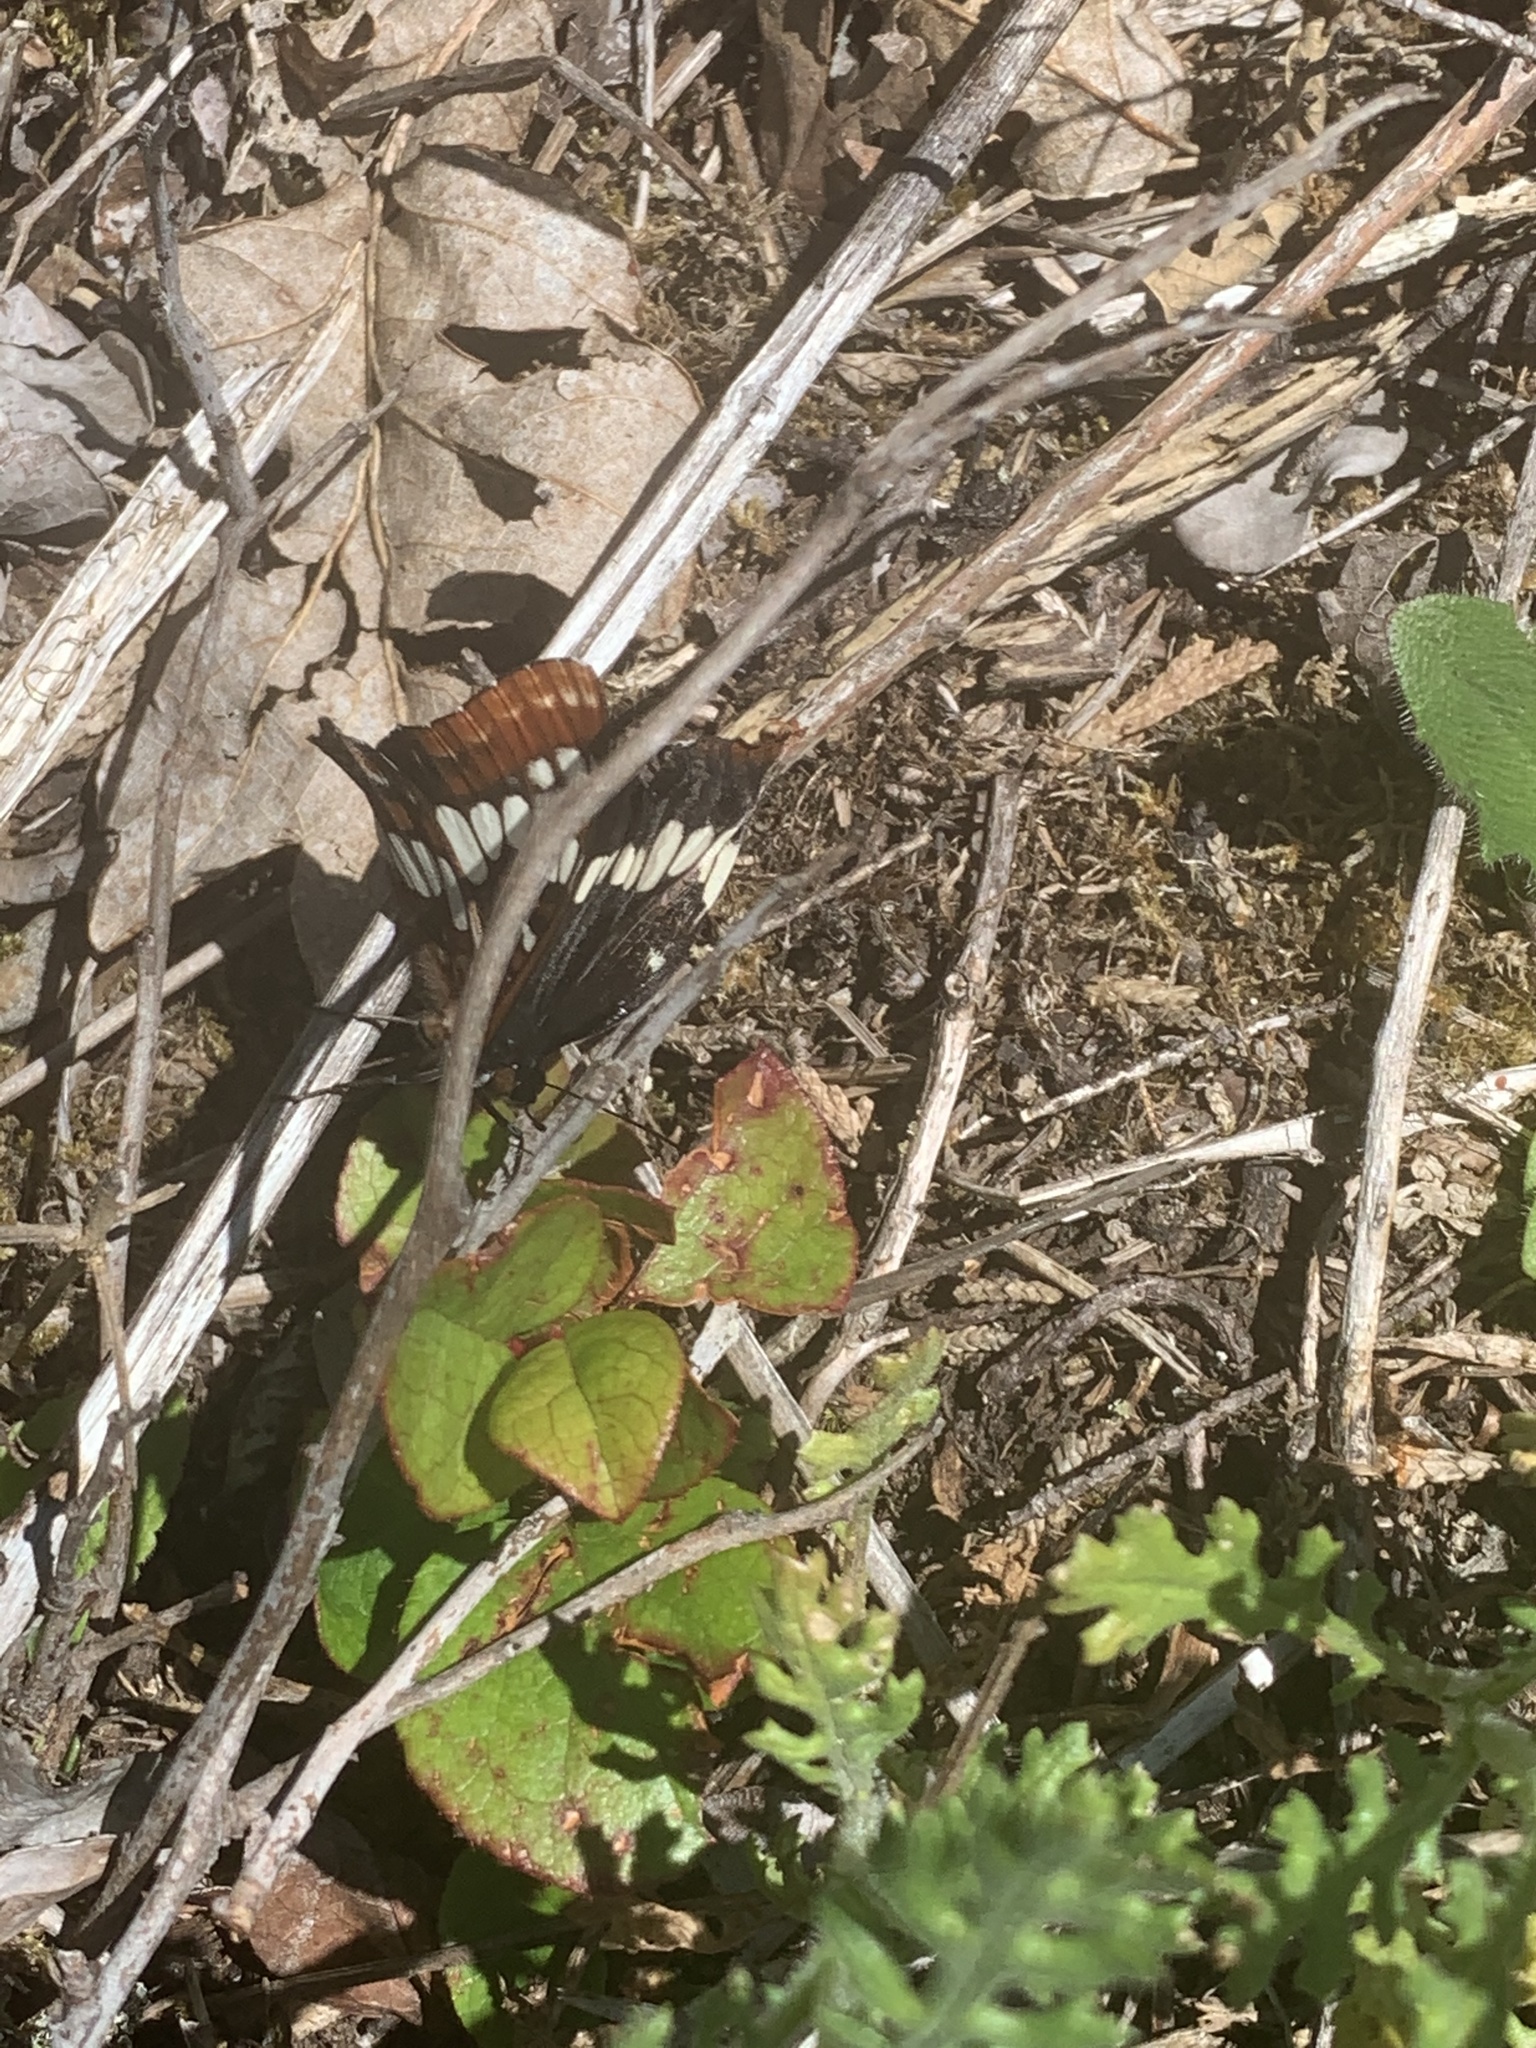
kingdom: Animalia
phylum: Arthropoda
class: Insecta
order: Lepidoptera
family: Nymphalidae
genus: Limenitis
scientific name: Limenitis lorquini
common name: Lorquin's admiral
